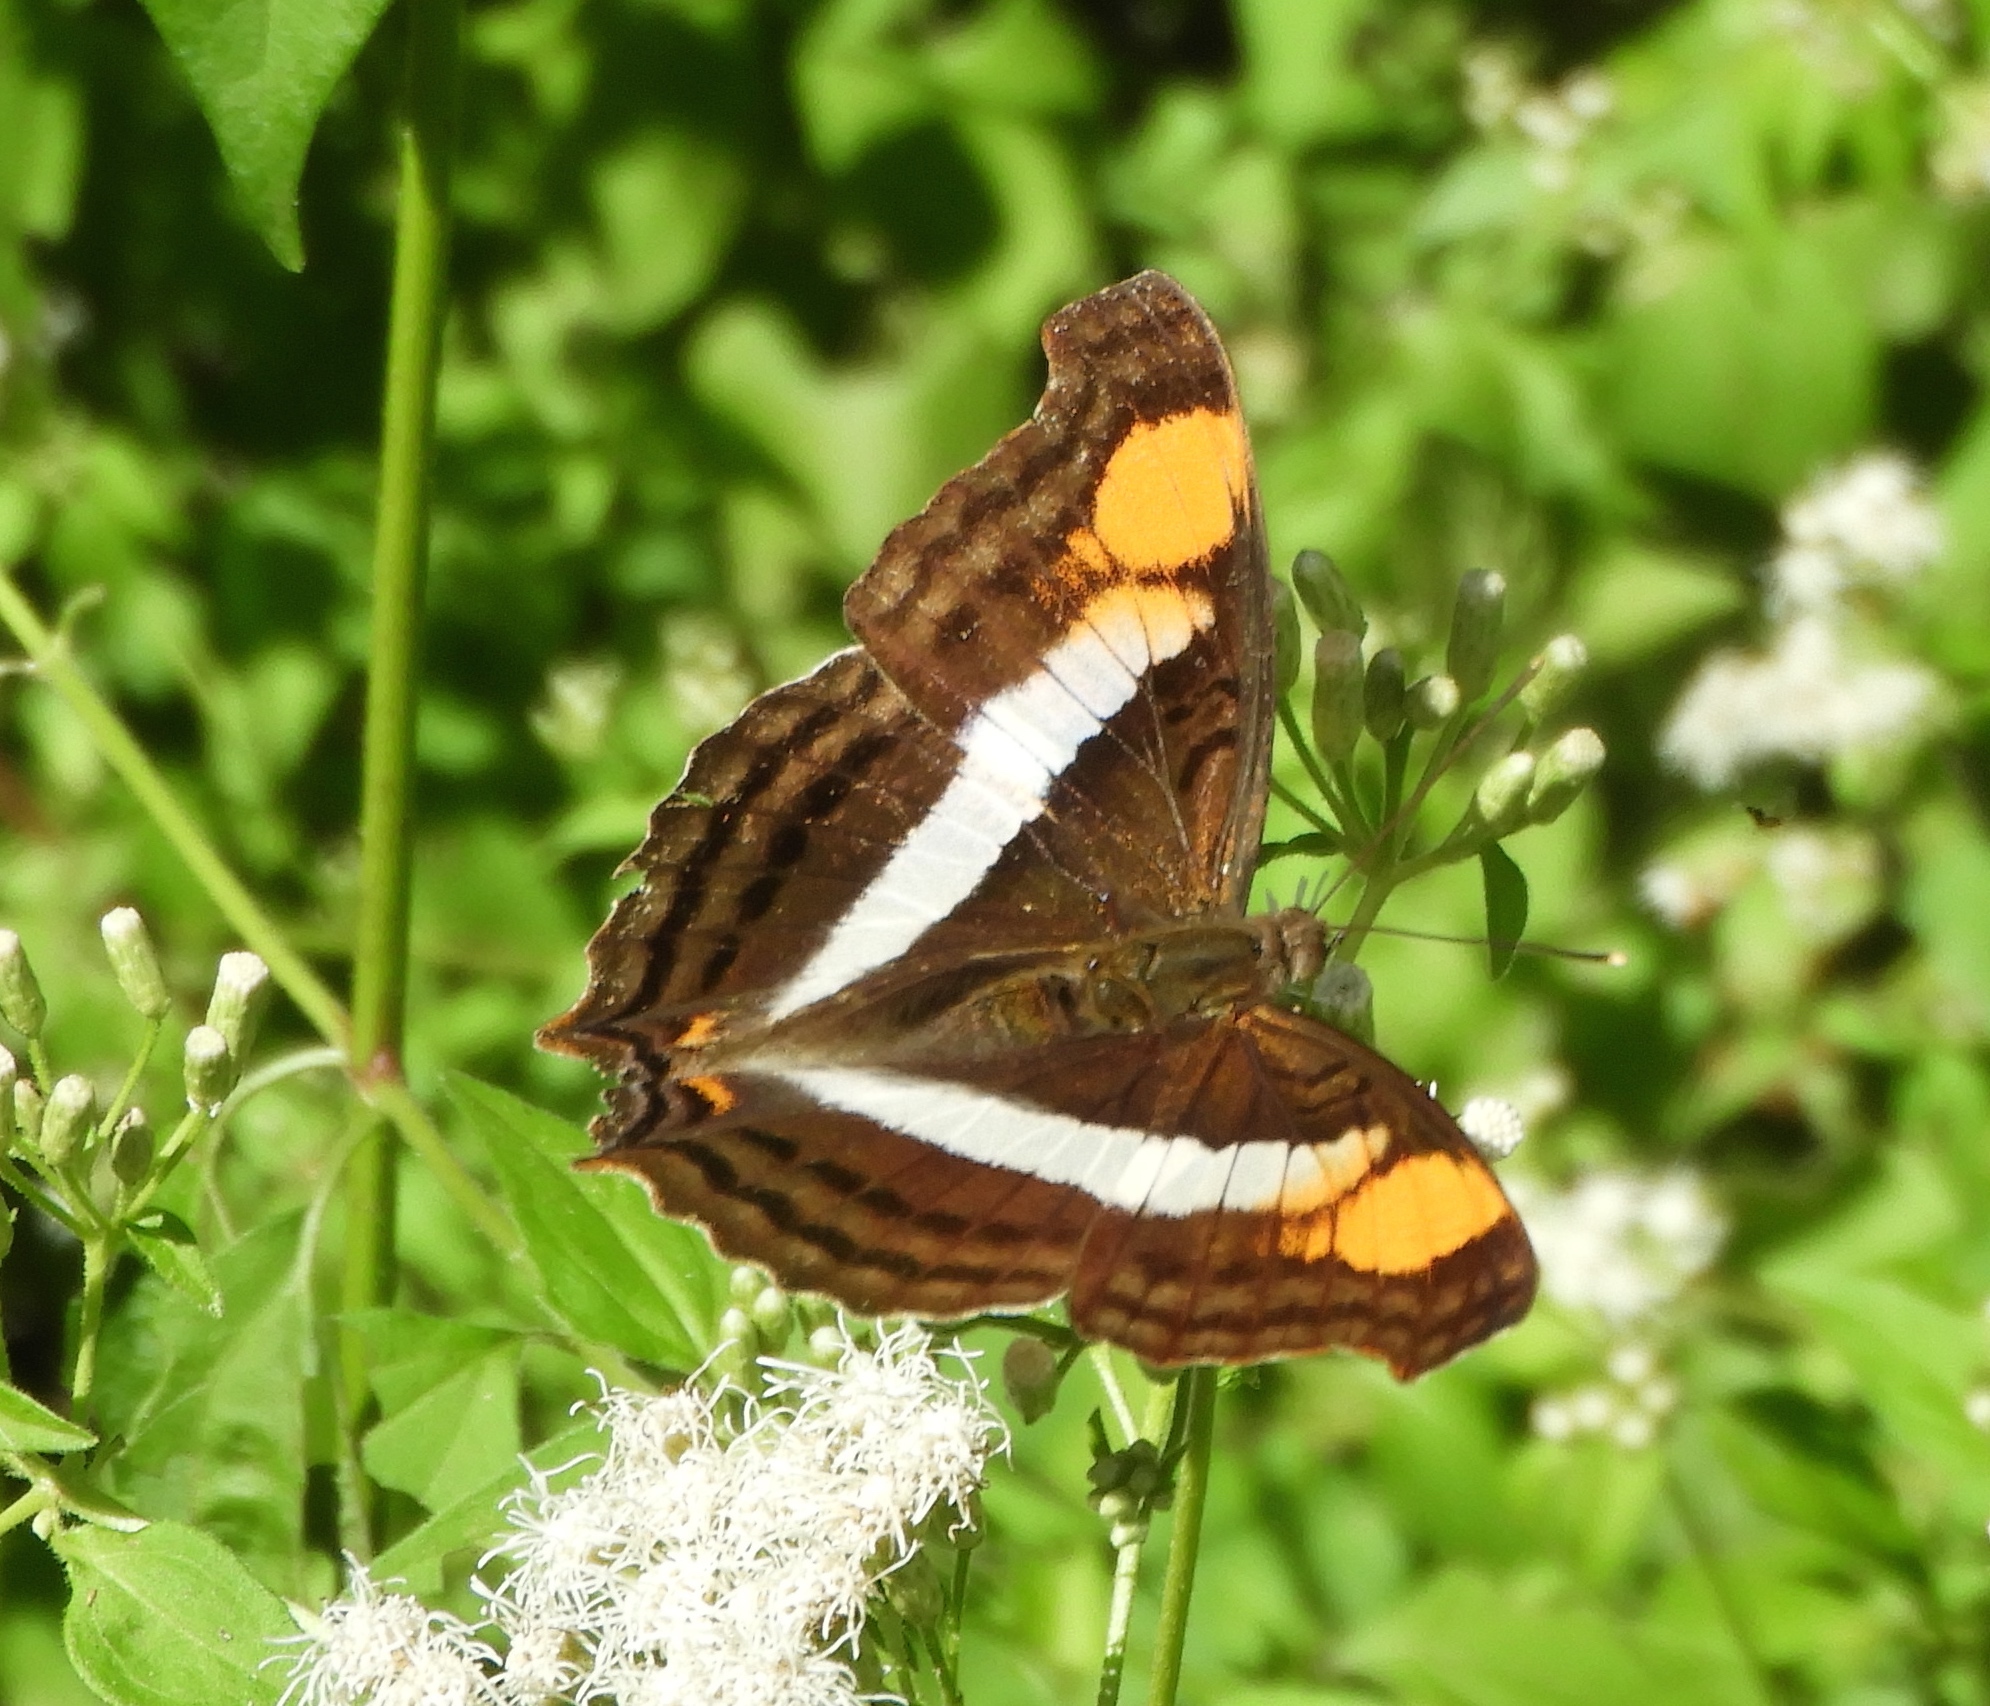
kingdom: Animalia
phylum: Arthropoda
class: Insecta
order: Lepidoptera
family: Nymphalidae
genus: Doxocopa
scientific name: Doxocopa
